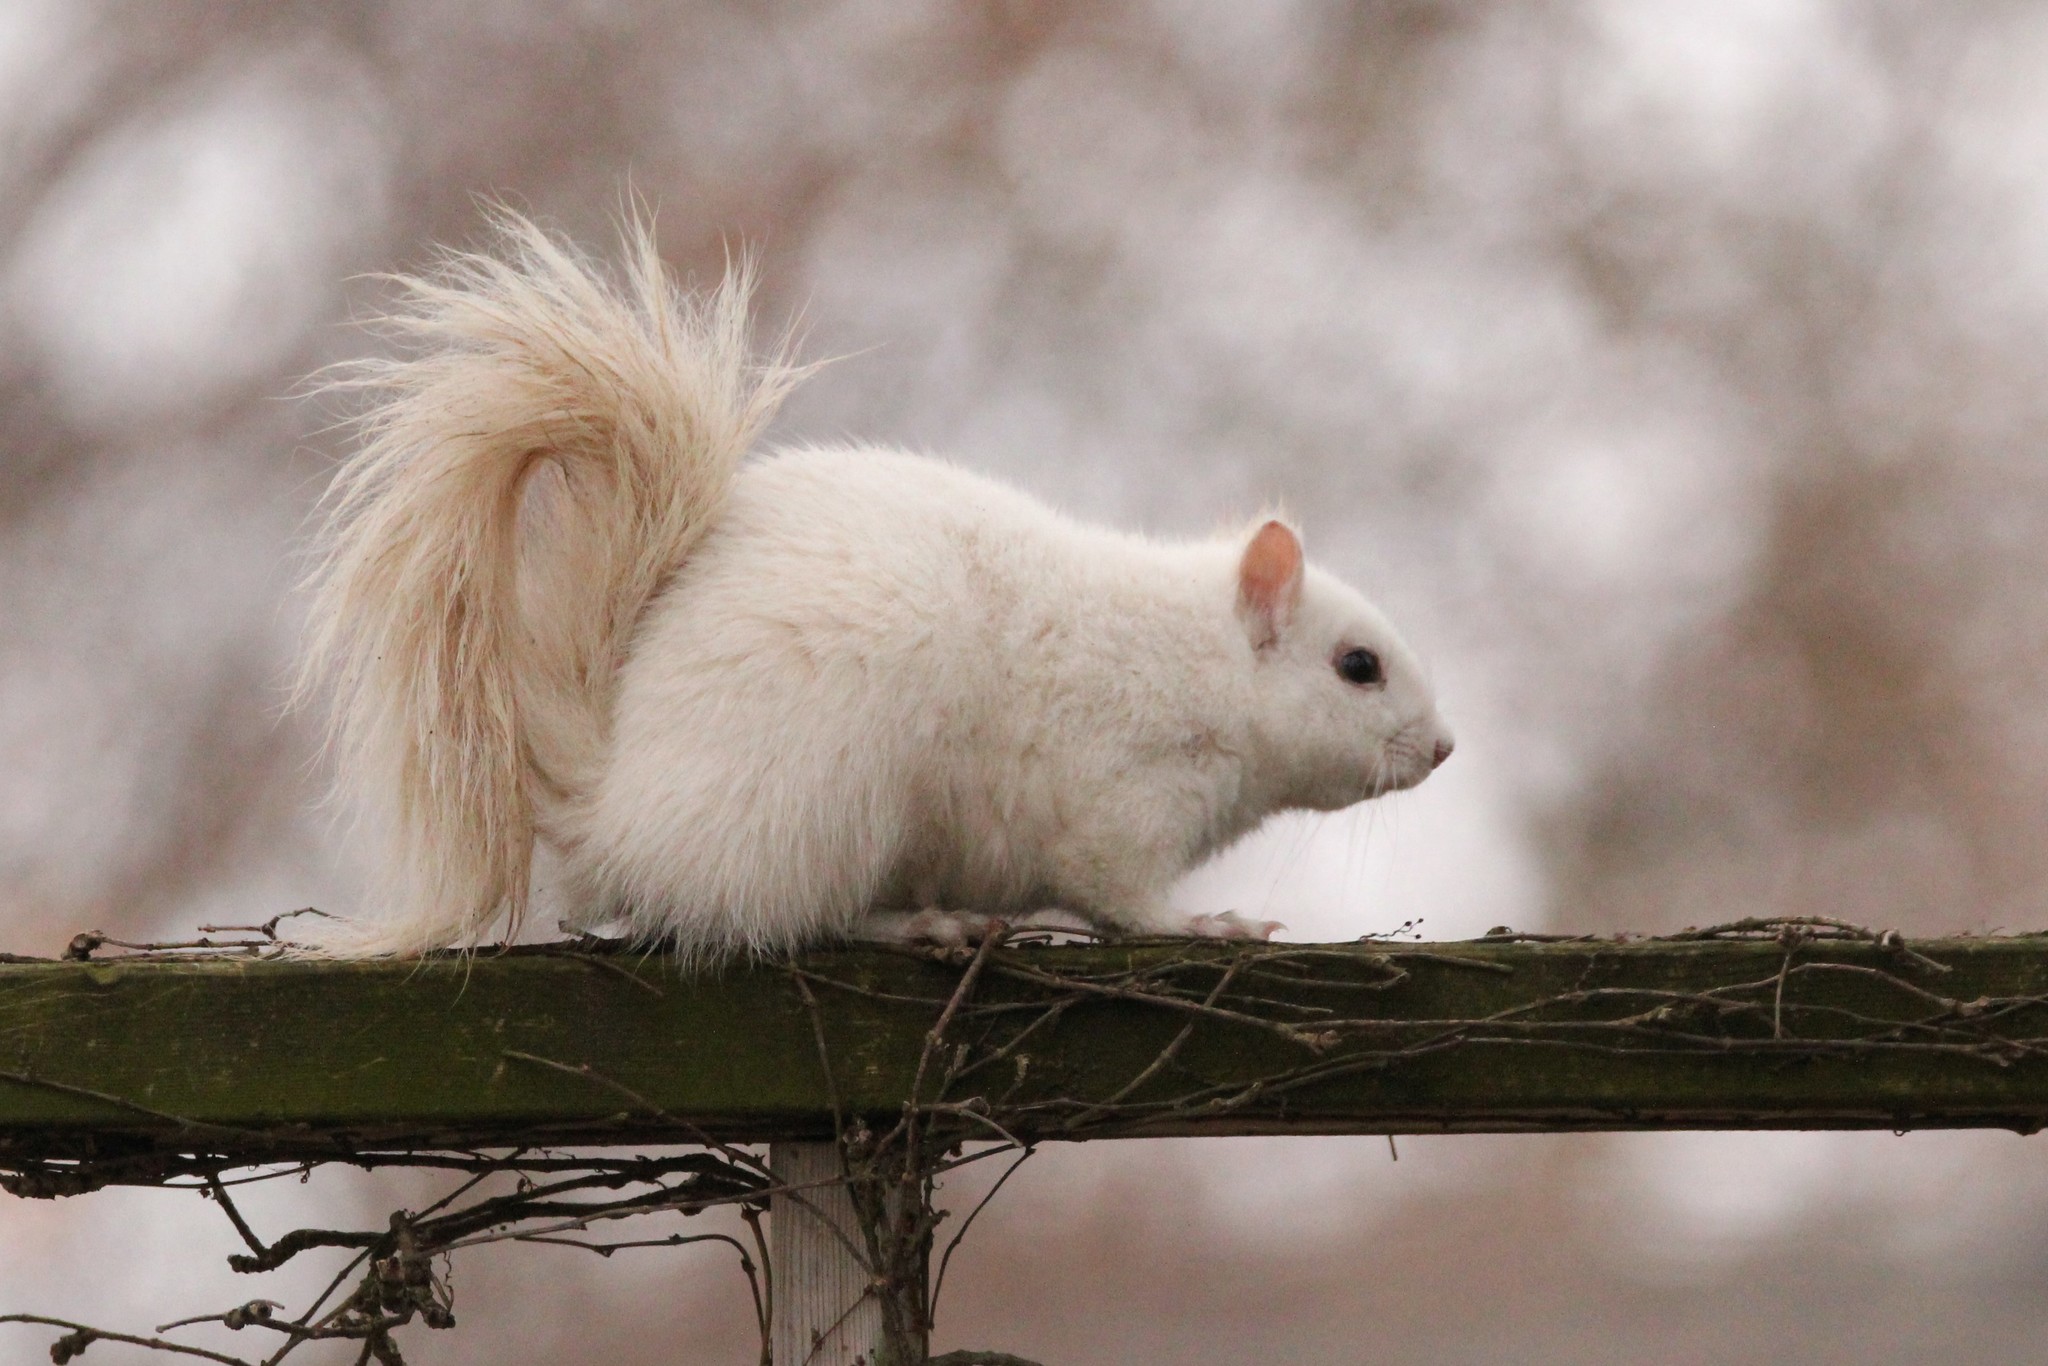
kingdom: Animalia
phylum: Chordata
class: Mammalia
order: Rodentia
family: Sciuridae
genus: Sciurus
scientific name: Sciurus carolinensis
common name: Eastern gray squirrel
